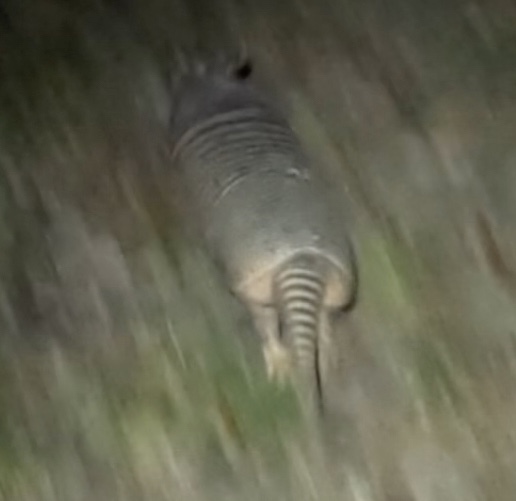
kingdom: Animalia
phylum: Chordata
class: Mammalia
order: Cingulata
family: Dasypodidae
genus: Dasypus
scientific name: Dasypus novemcinctus
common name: Nine-banded armadillo
